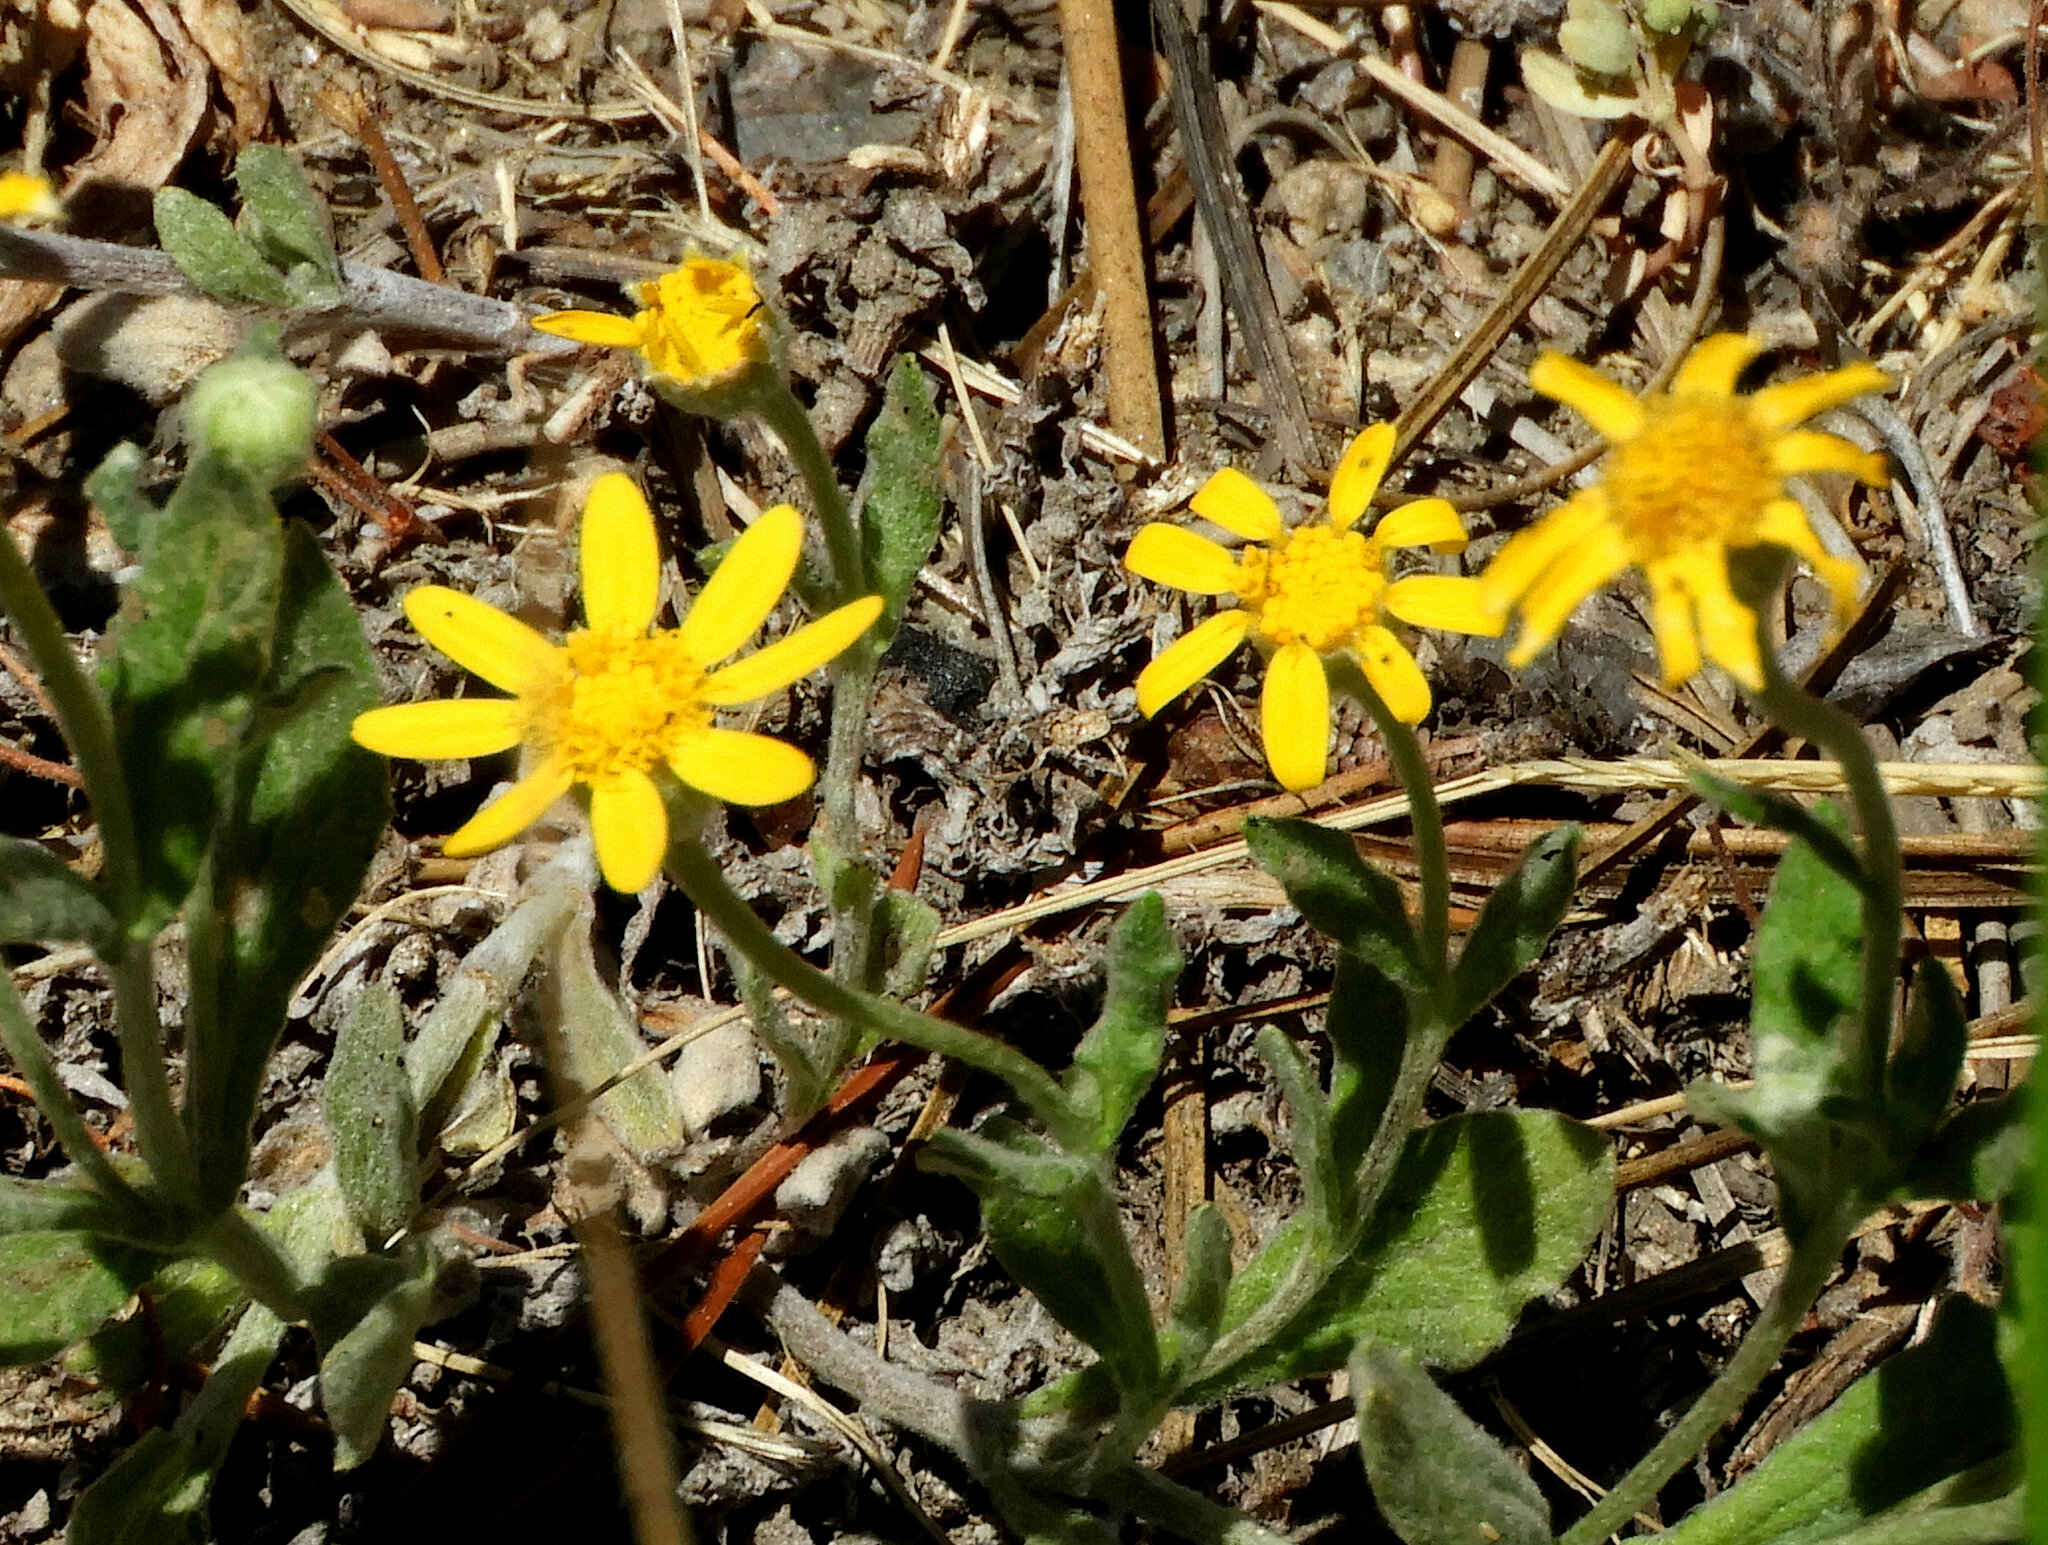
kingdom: Plantae
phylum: Tracheophyta
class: Magnoliopsida
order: Asterales
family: Asteraceae
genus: Eriophyllum
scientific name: Eriophyllum lanatum
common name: Common woolly-sunflower
